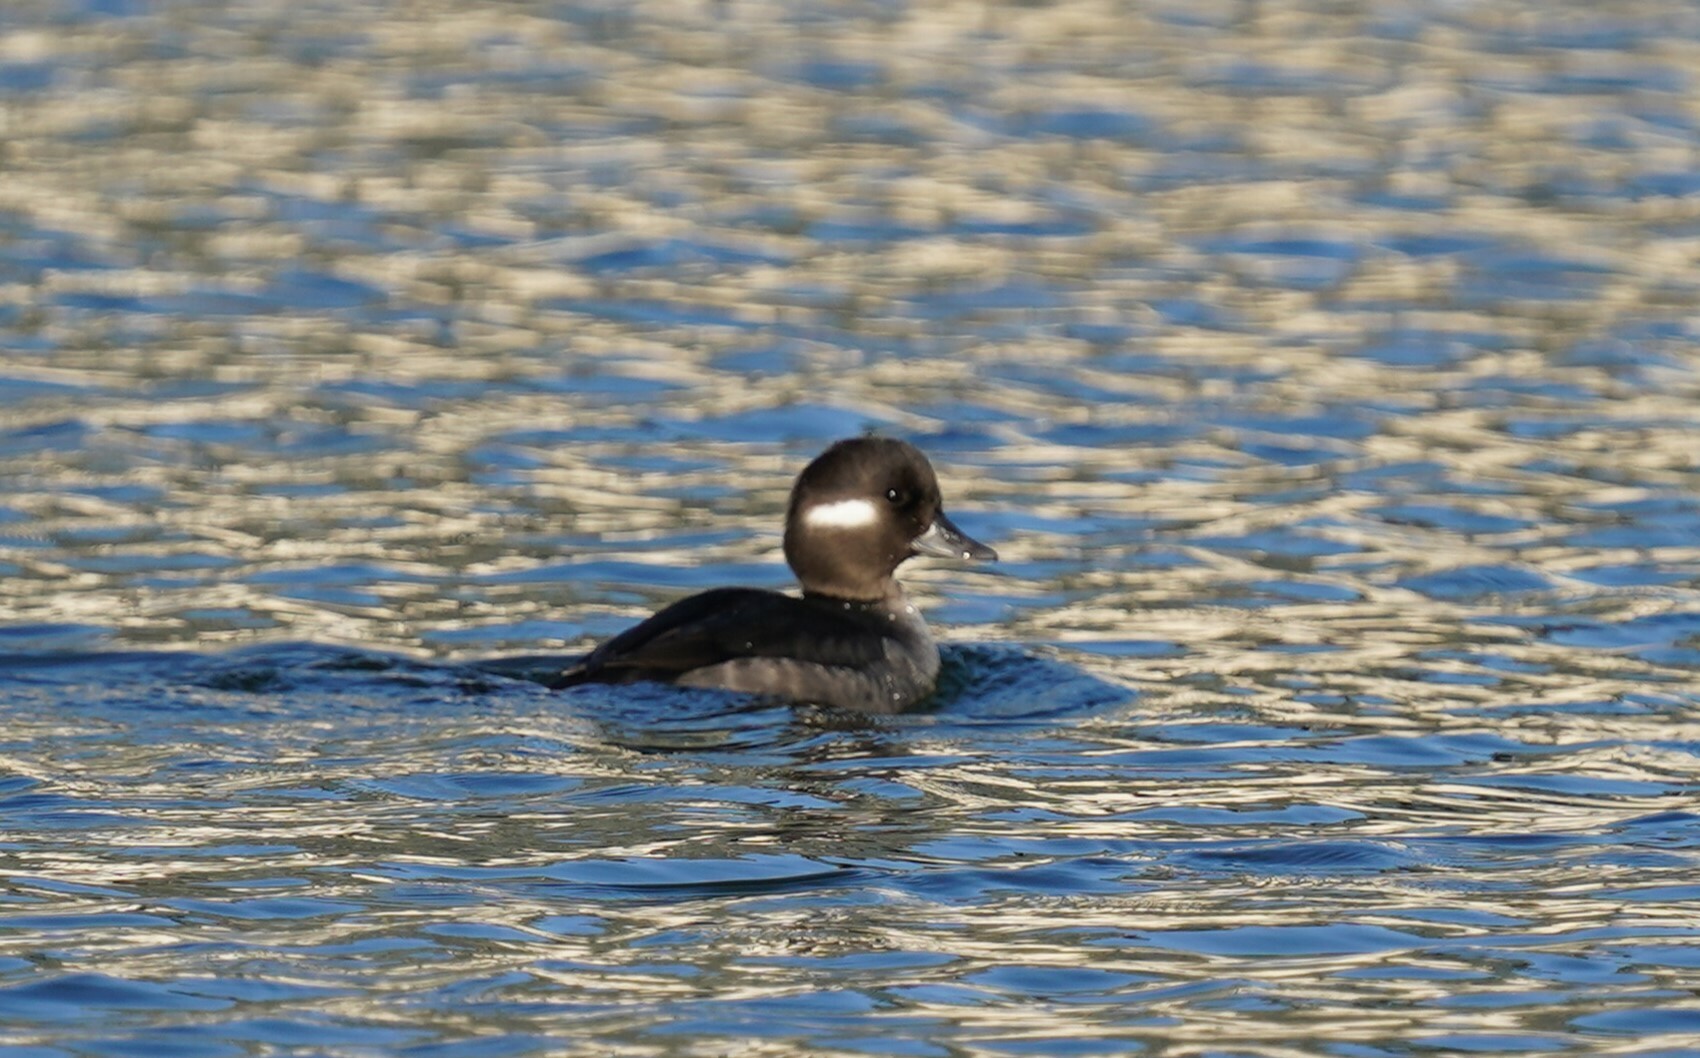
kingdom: Animalia
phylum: Chordata
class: Aves
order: Anseriformes
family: Anatidae
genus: Bucephala
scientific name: Bucephala albeola
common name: Bufflehead
